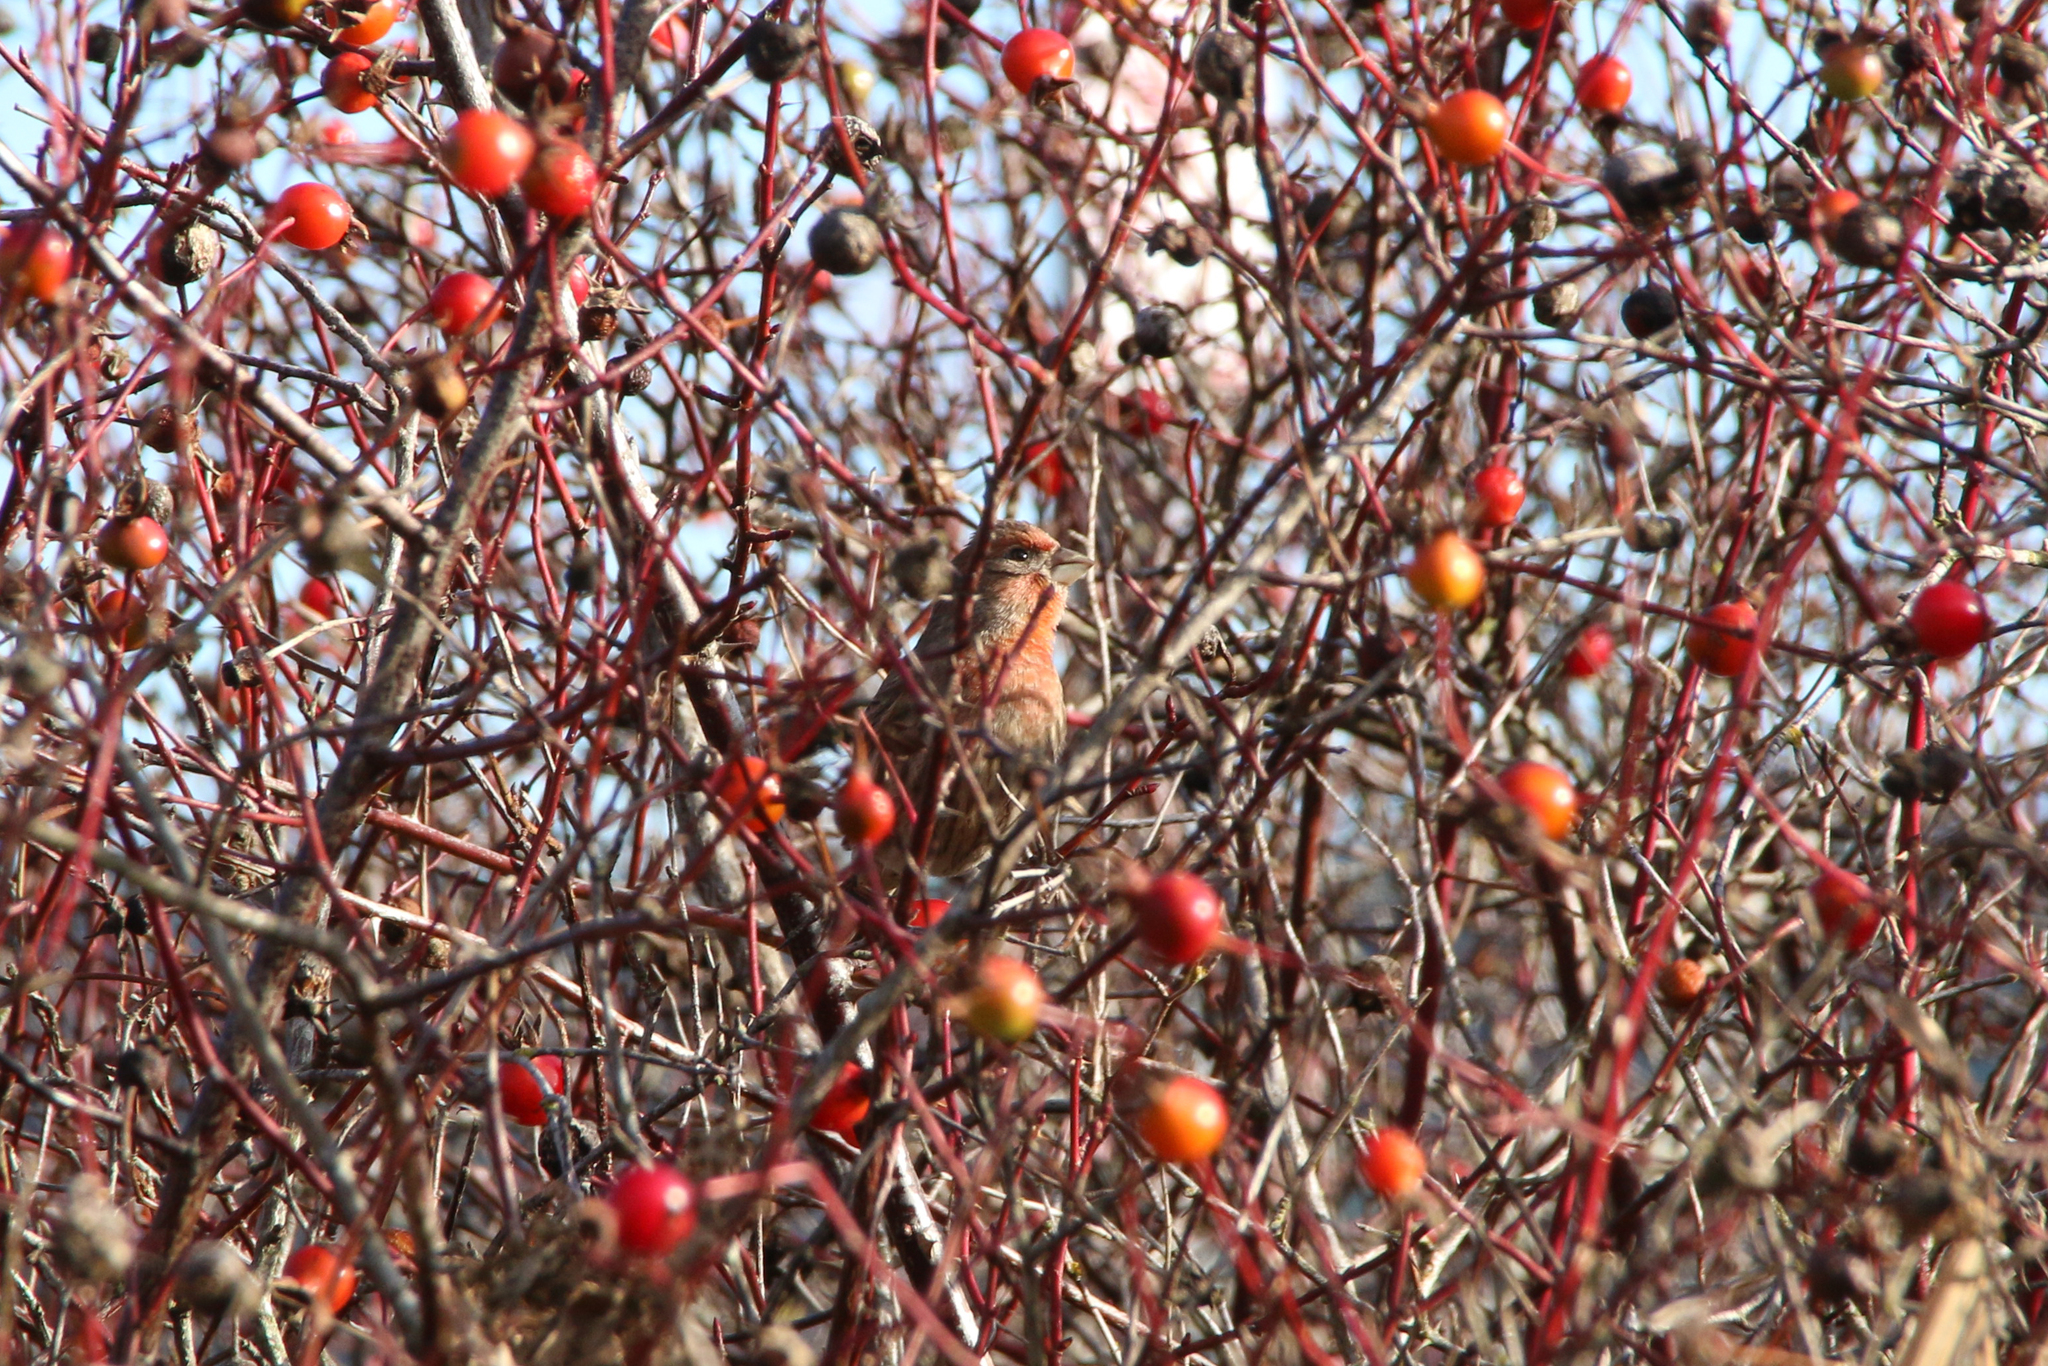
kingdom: Animalia
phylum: Chordata
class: Aves
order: Passeriformes
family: Fringillidae
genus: Haemorhous
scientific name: Haemorhous mexicanus
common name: House finch
